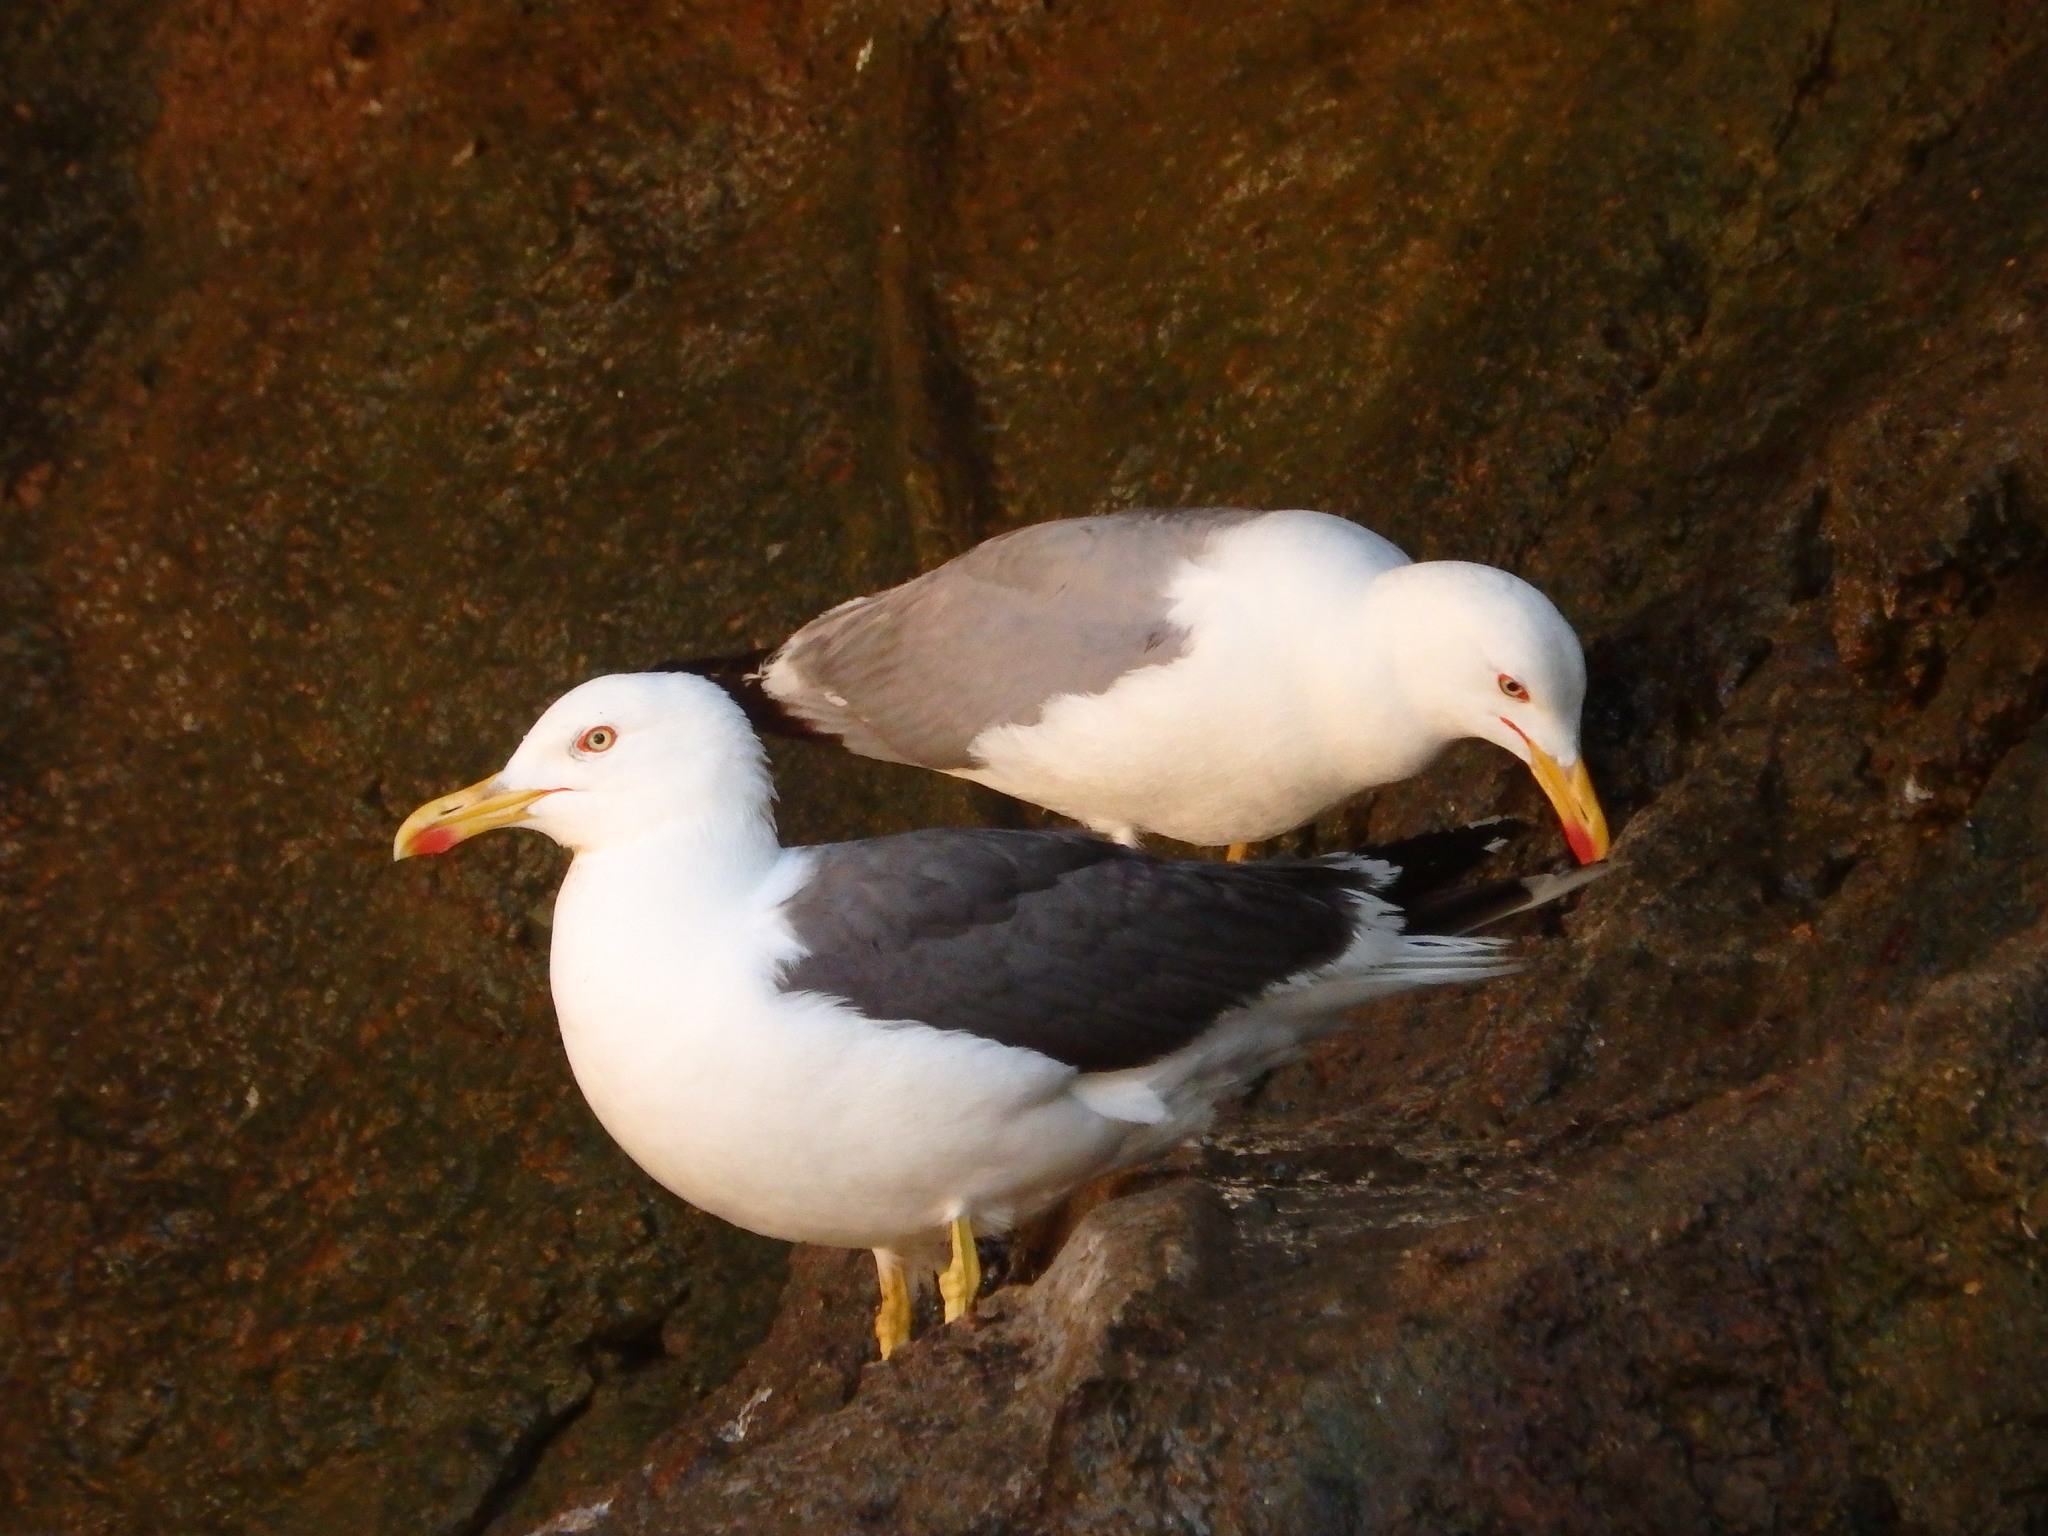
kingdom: Animalia
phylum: Chordata
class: Aves
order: Charadriiformes
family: Laridae
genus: Larus
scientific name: Larus fuscus
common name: Lesser black-backed gull
